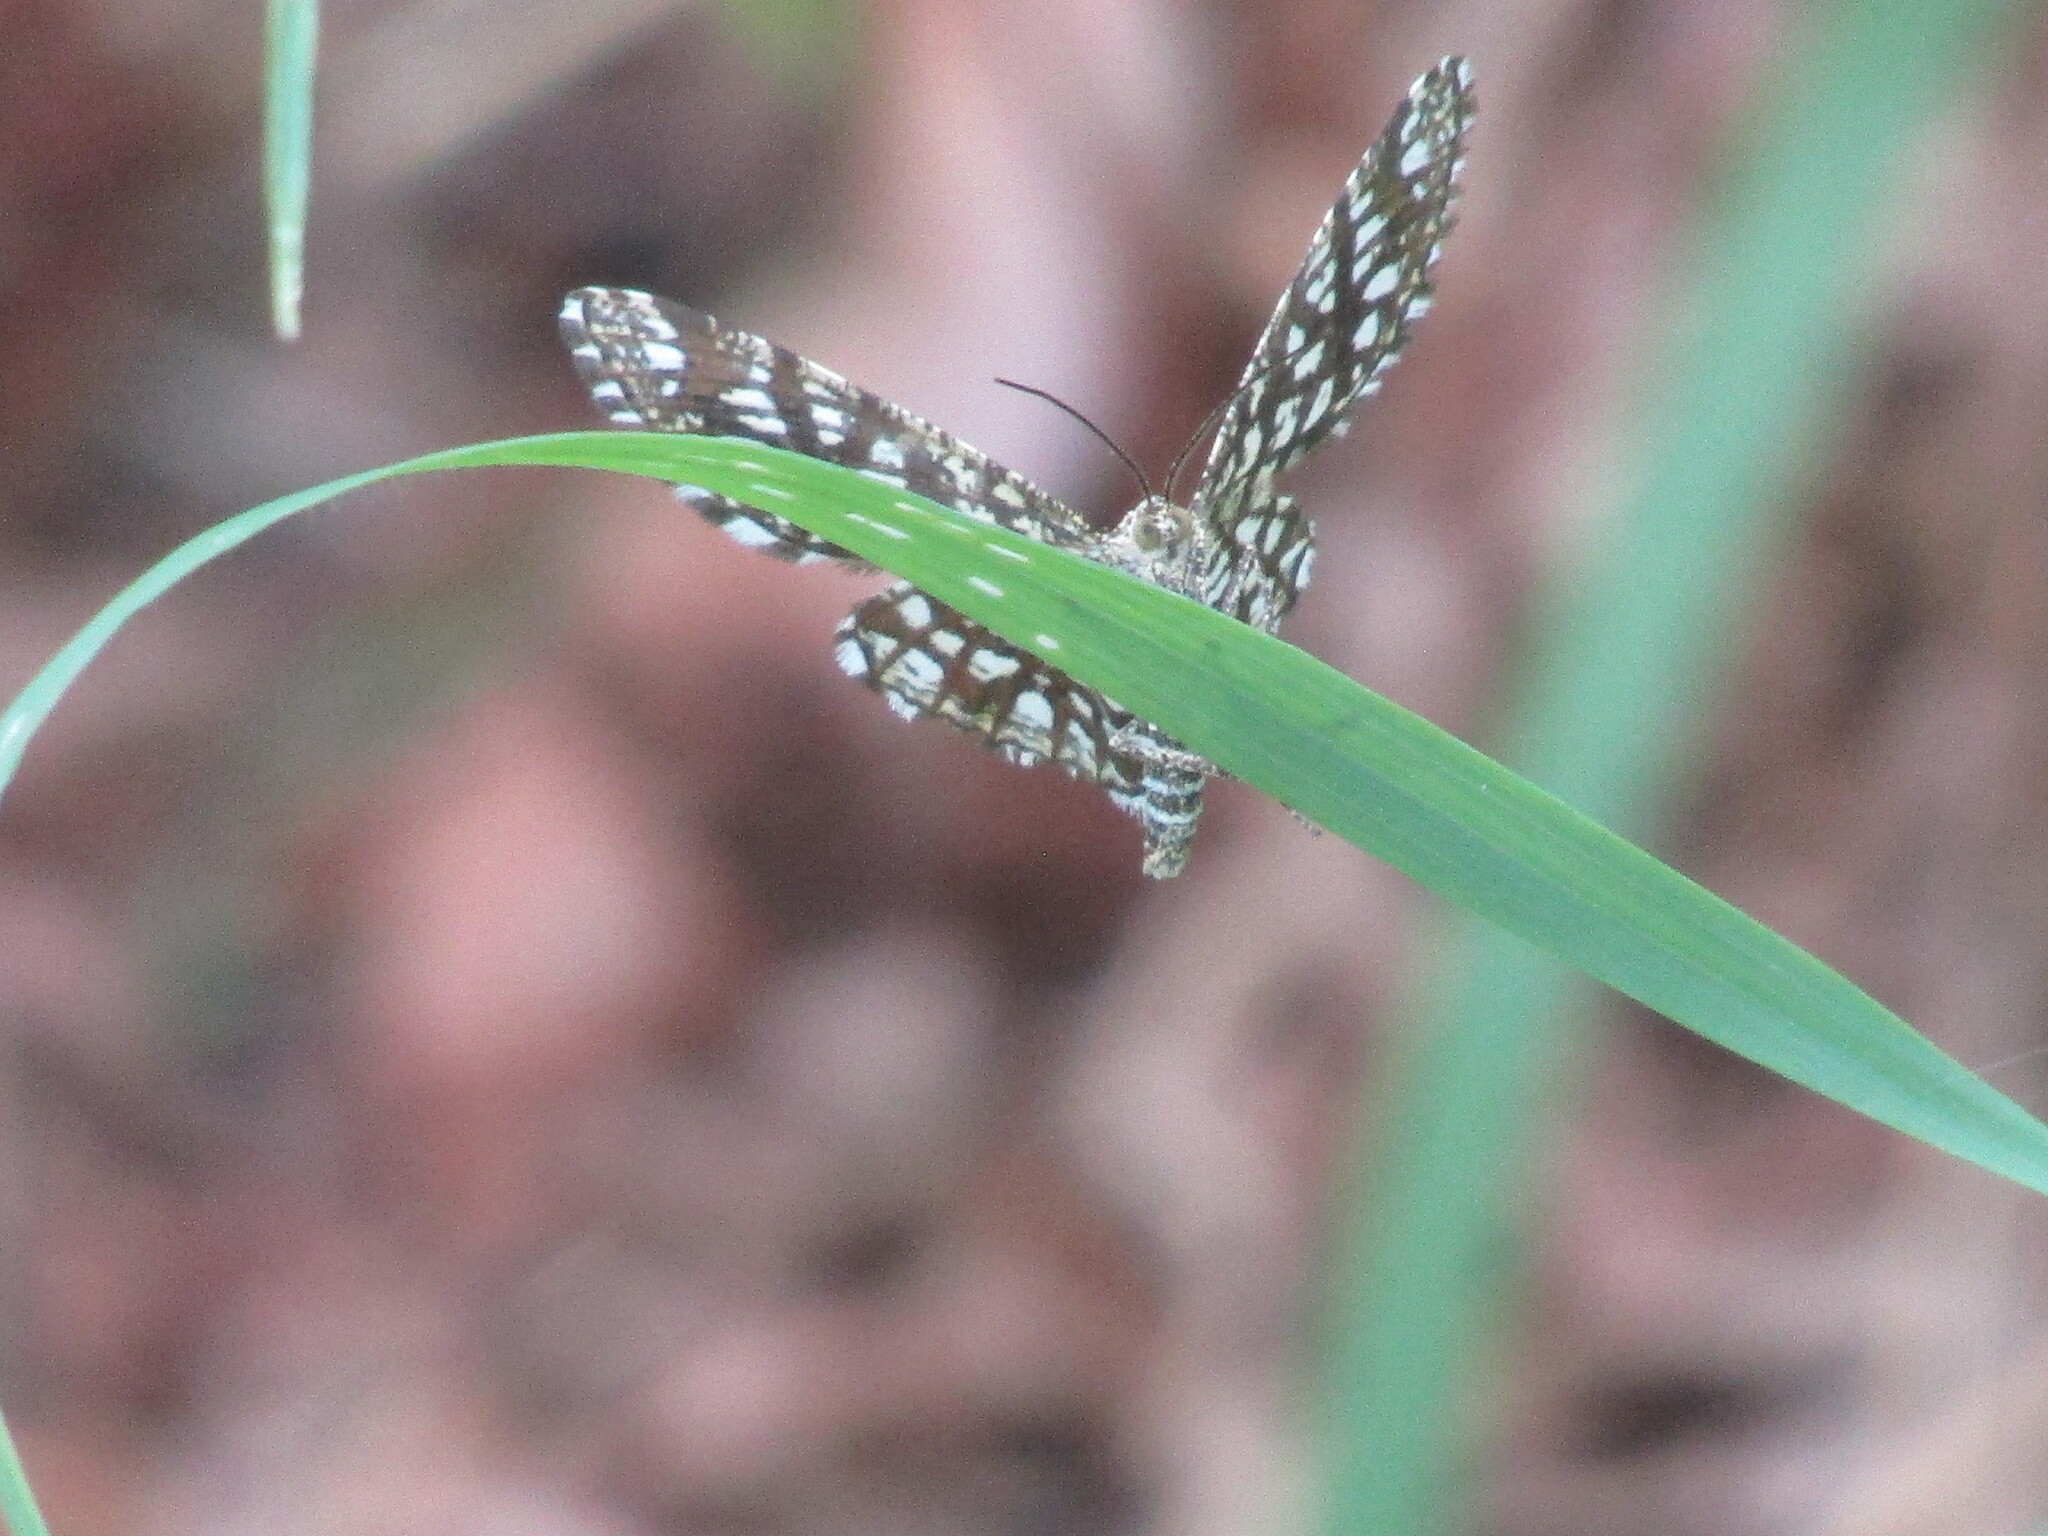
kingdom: Animalia
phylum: Arthropoda
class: Insecta
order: Lepidoptera
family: Geometridae
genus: Chiasmia
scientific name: Chiasmia clathrata
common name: Latticed heath
